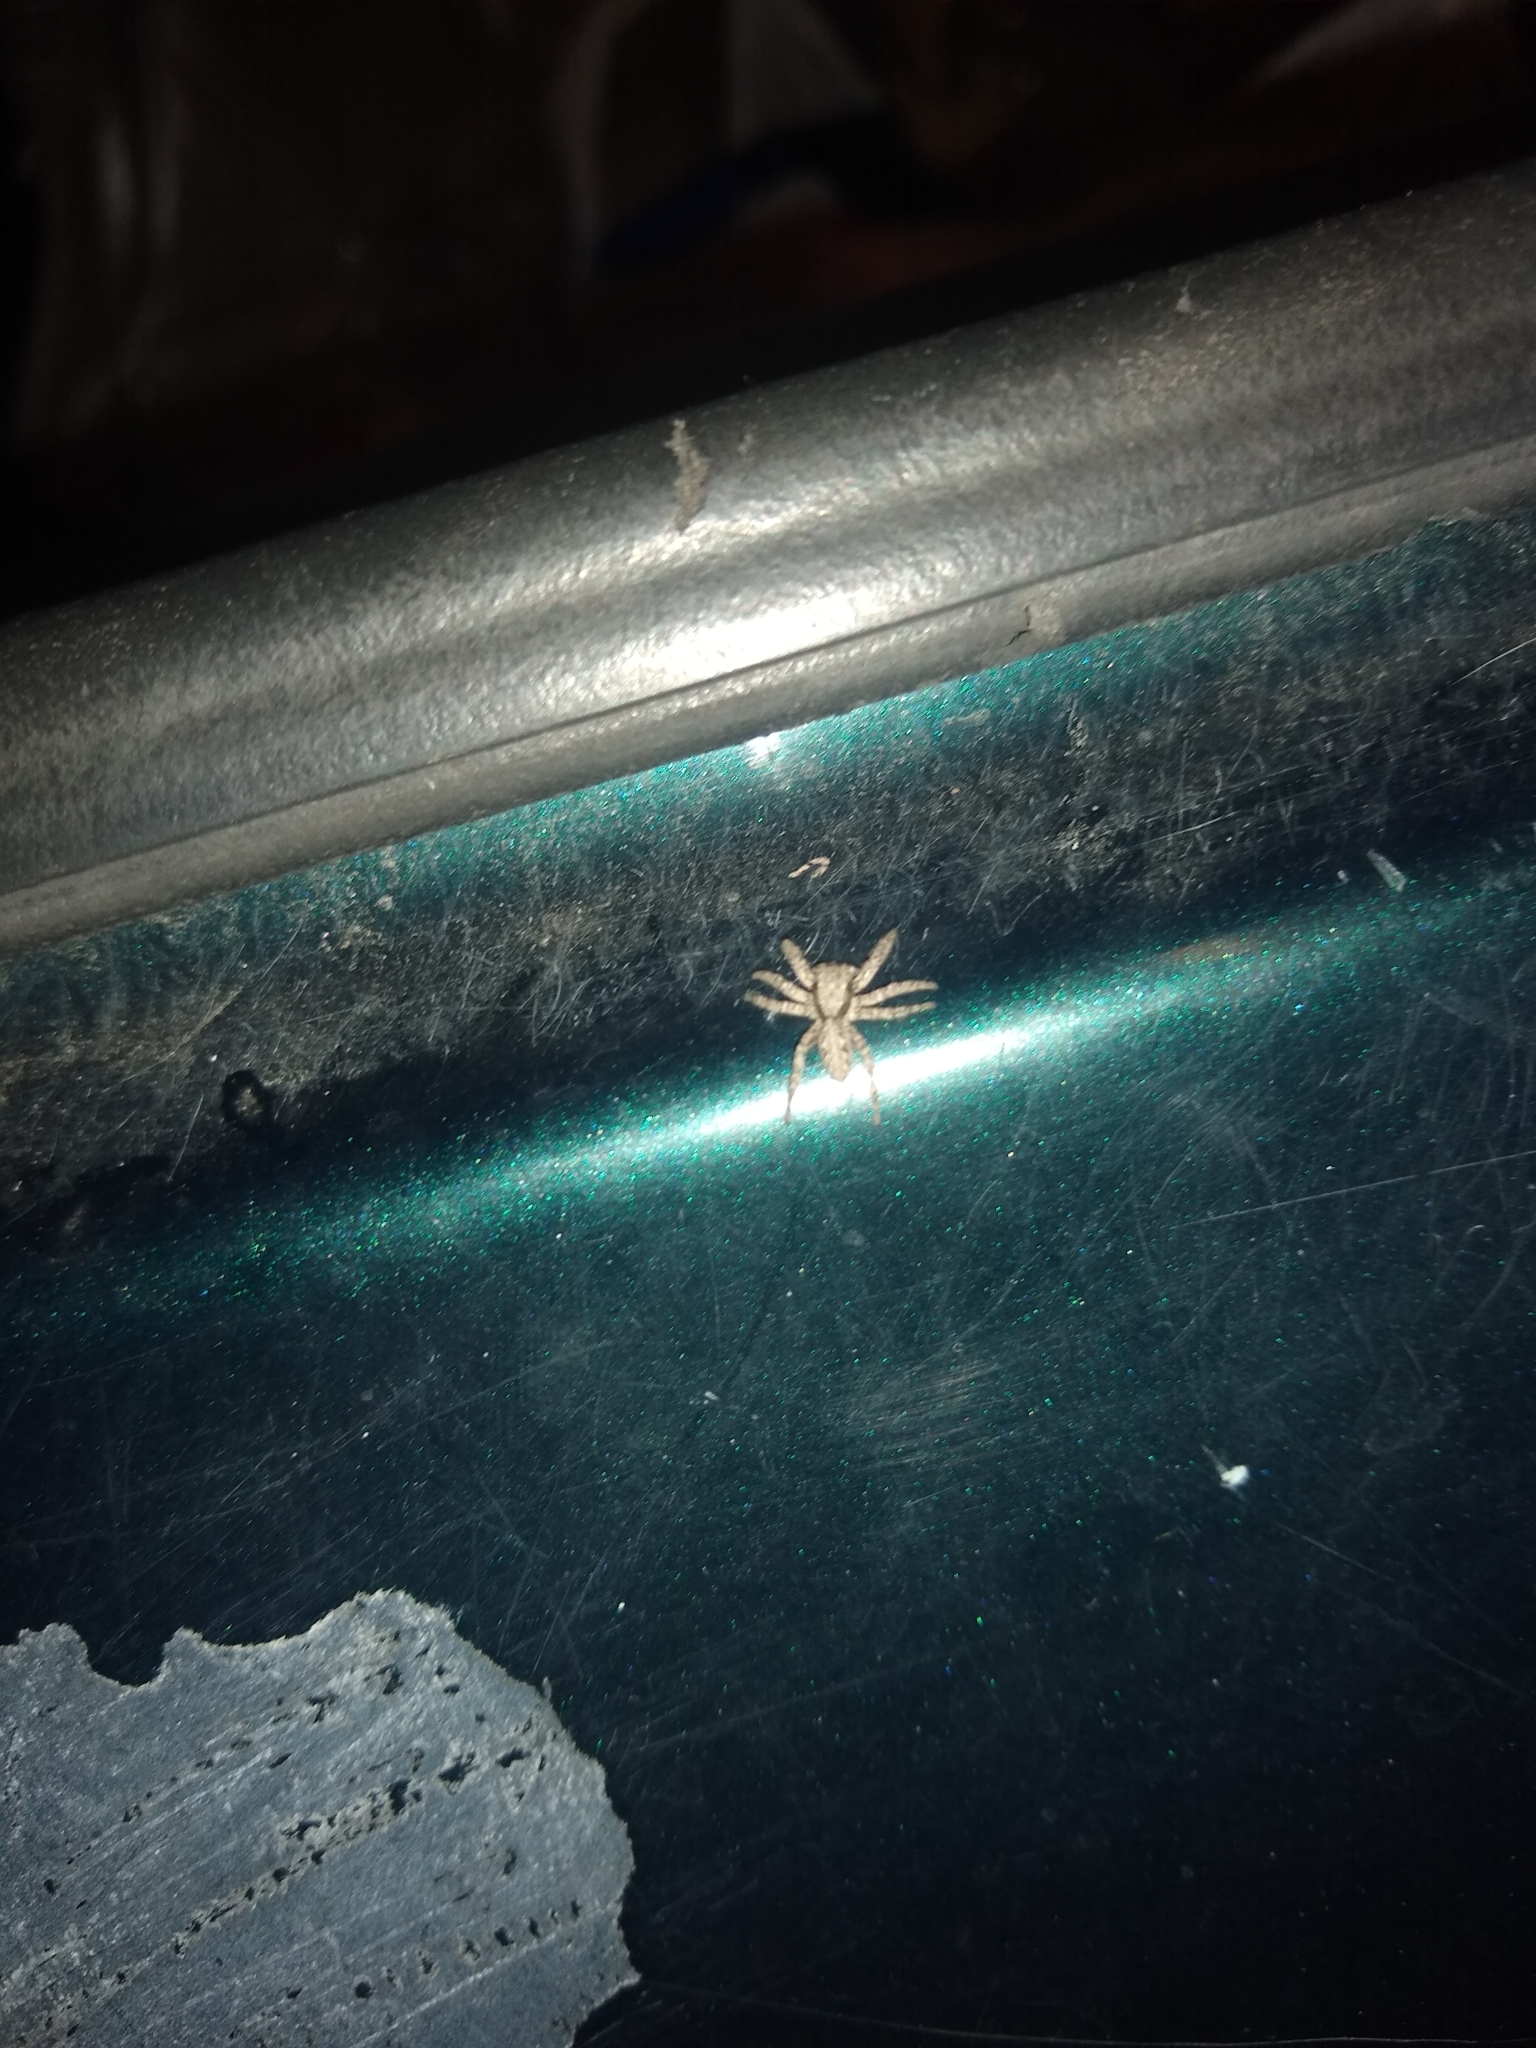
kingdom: Animalia
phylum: Arthropoda
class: Arachnida
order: Araneae
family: Salticidae
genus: Platycryptus
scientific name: Platycryptus californicus
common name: Jumping spiders
